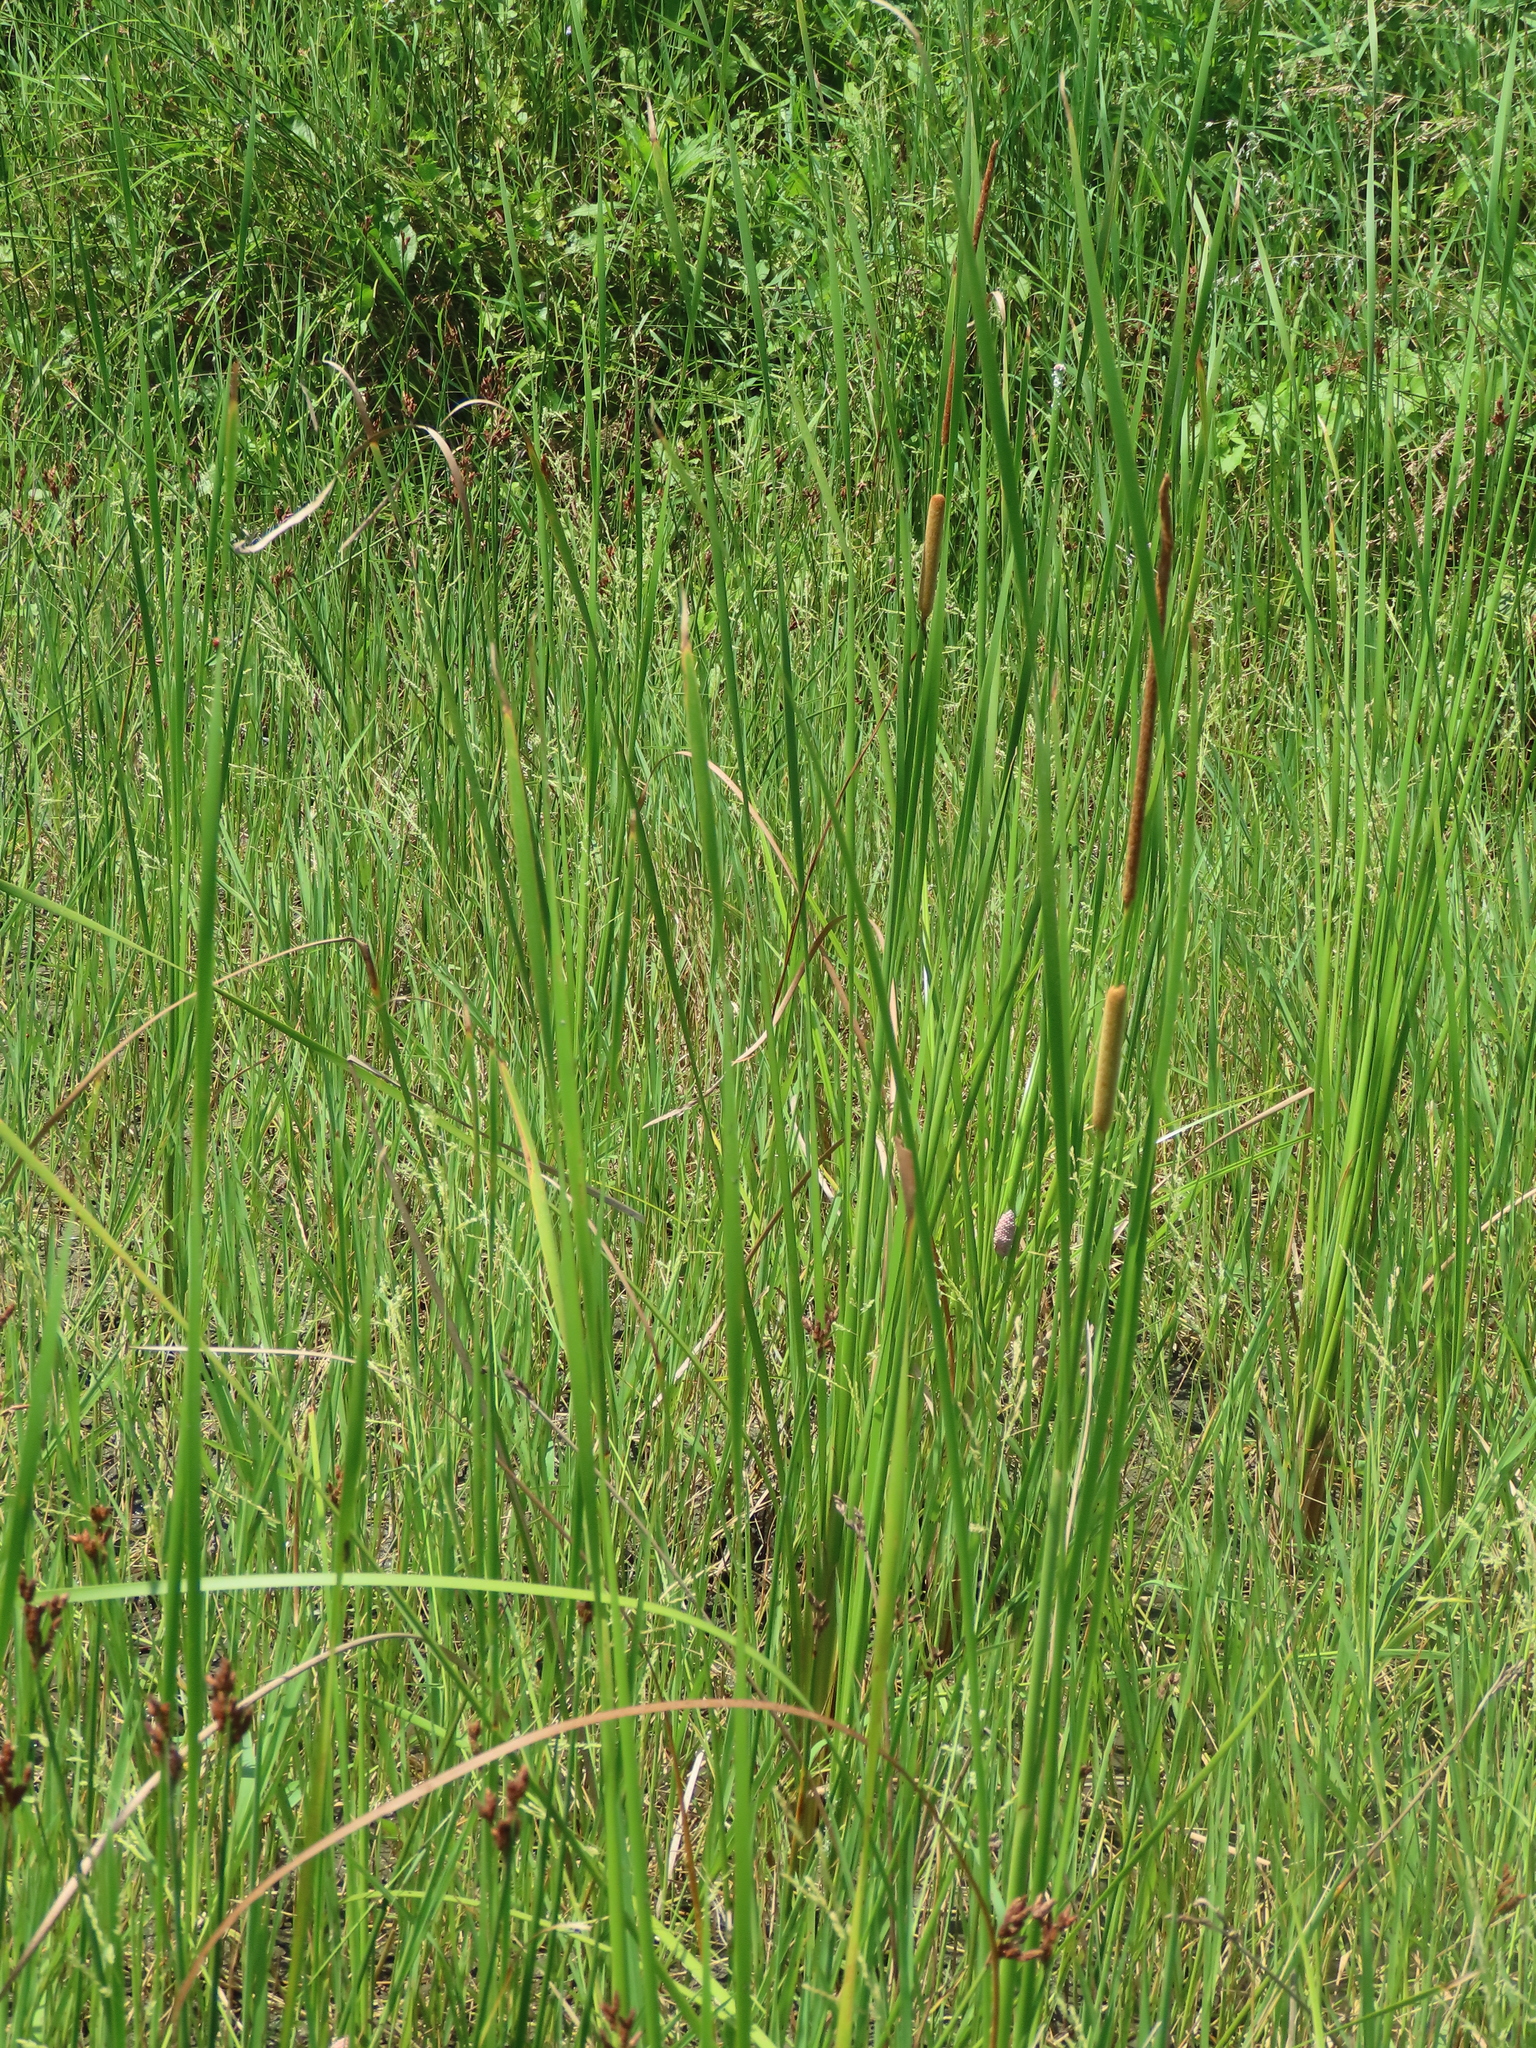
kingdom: Plantae
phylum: Tracheophyta
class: Liliopsida
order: Poales
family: Typhaceae
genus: Typha
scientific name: Typha angustifolia
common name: Lesser bulrush
